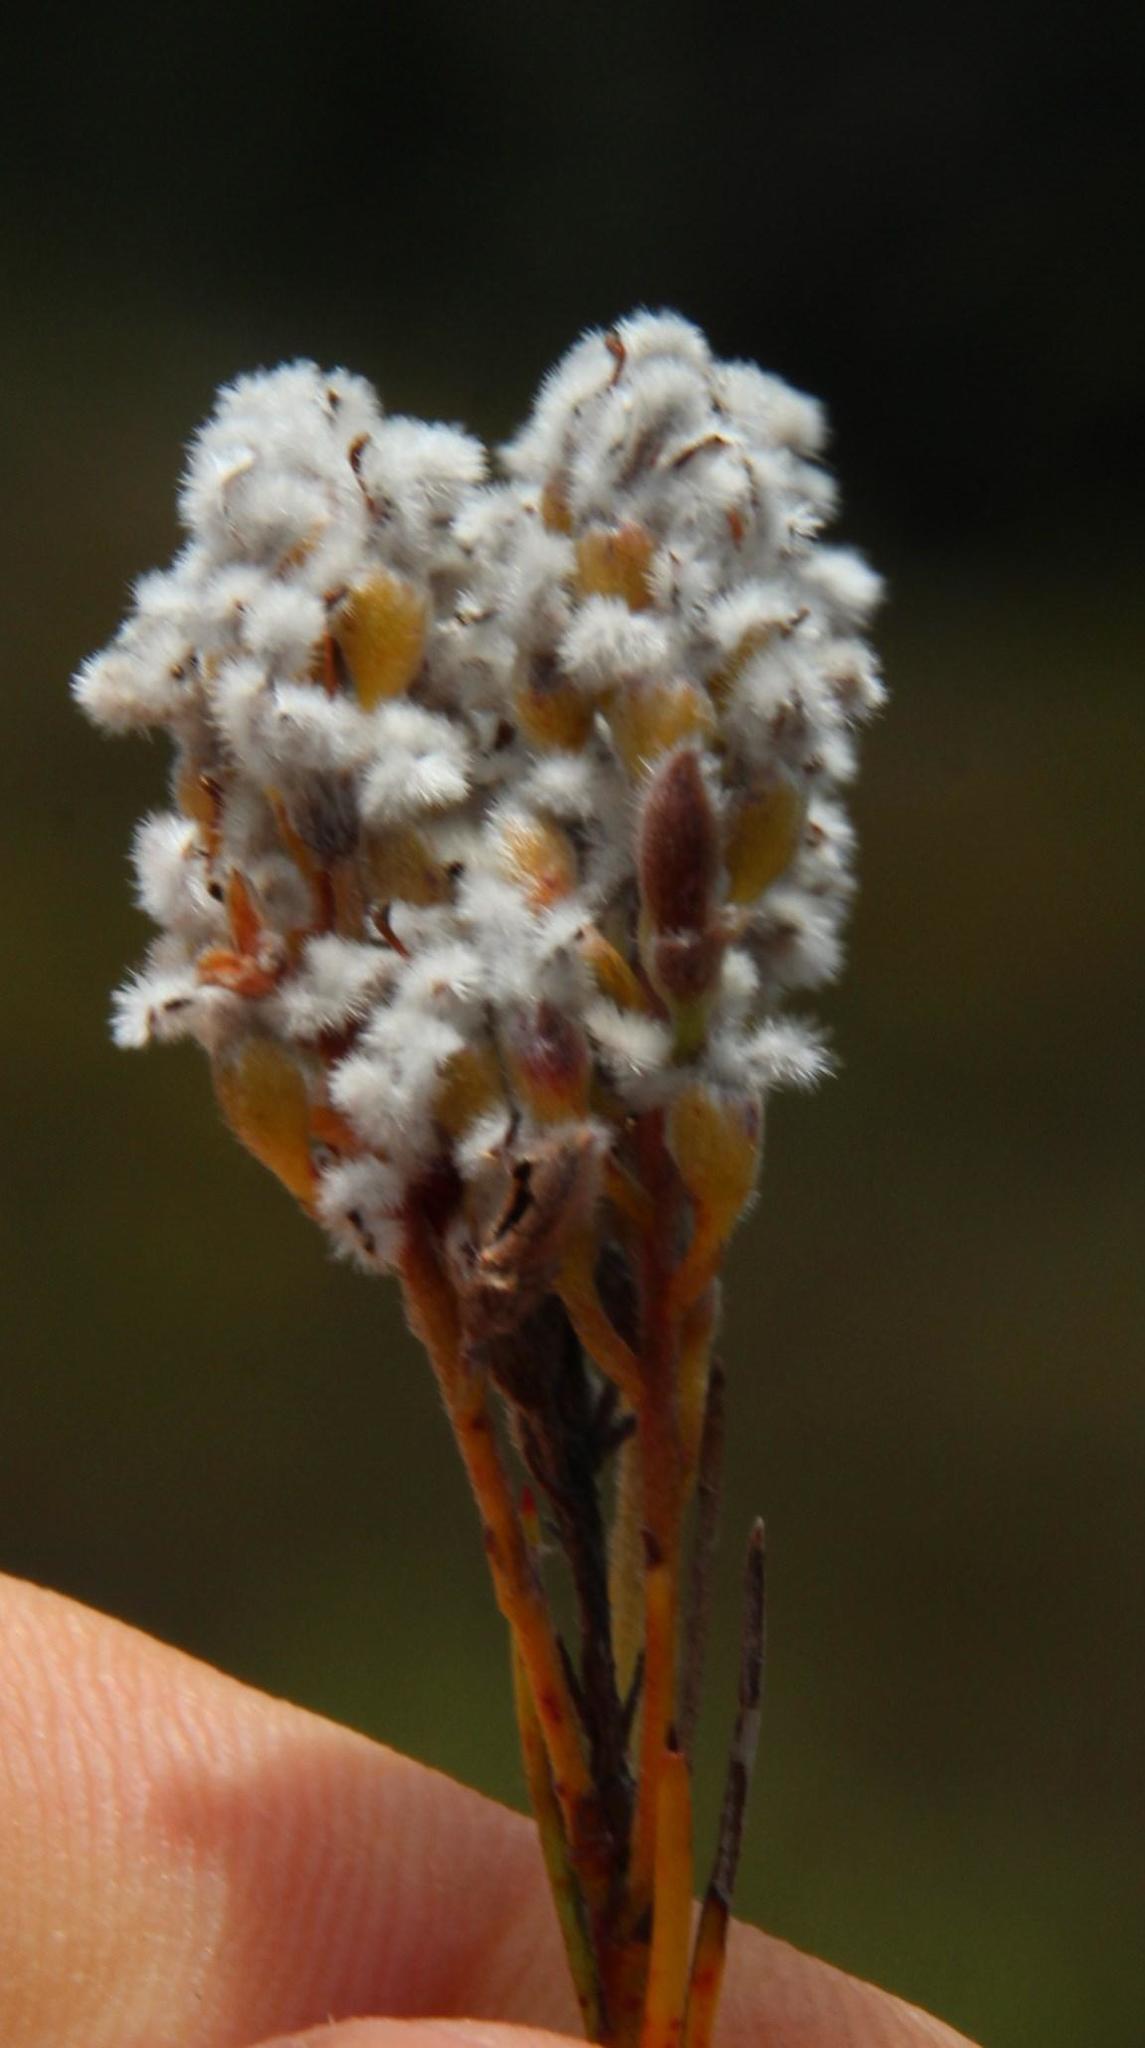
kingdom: Plantae
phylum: Tracheophyta
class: Magnoliopsida
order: Proteales
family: Proteaceae
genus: Spatalla
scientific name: Spatalla racemosa
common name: Lax-stalked spoon
